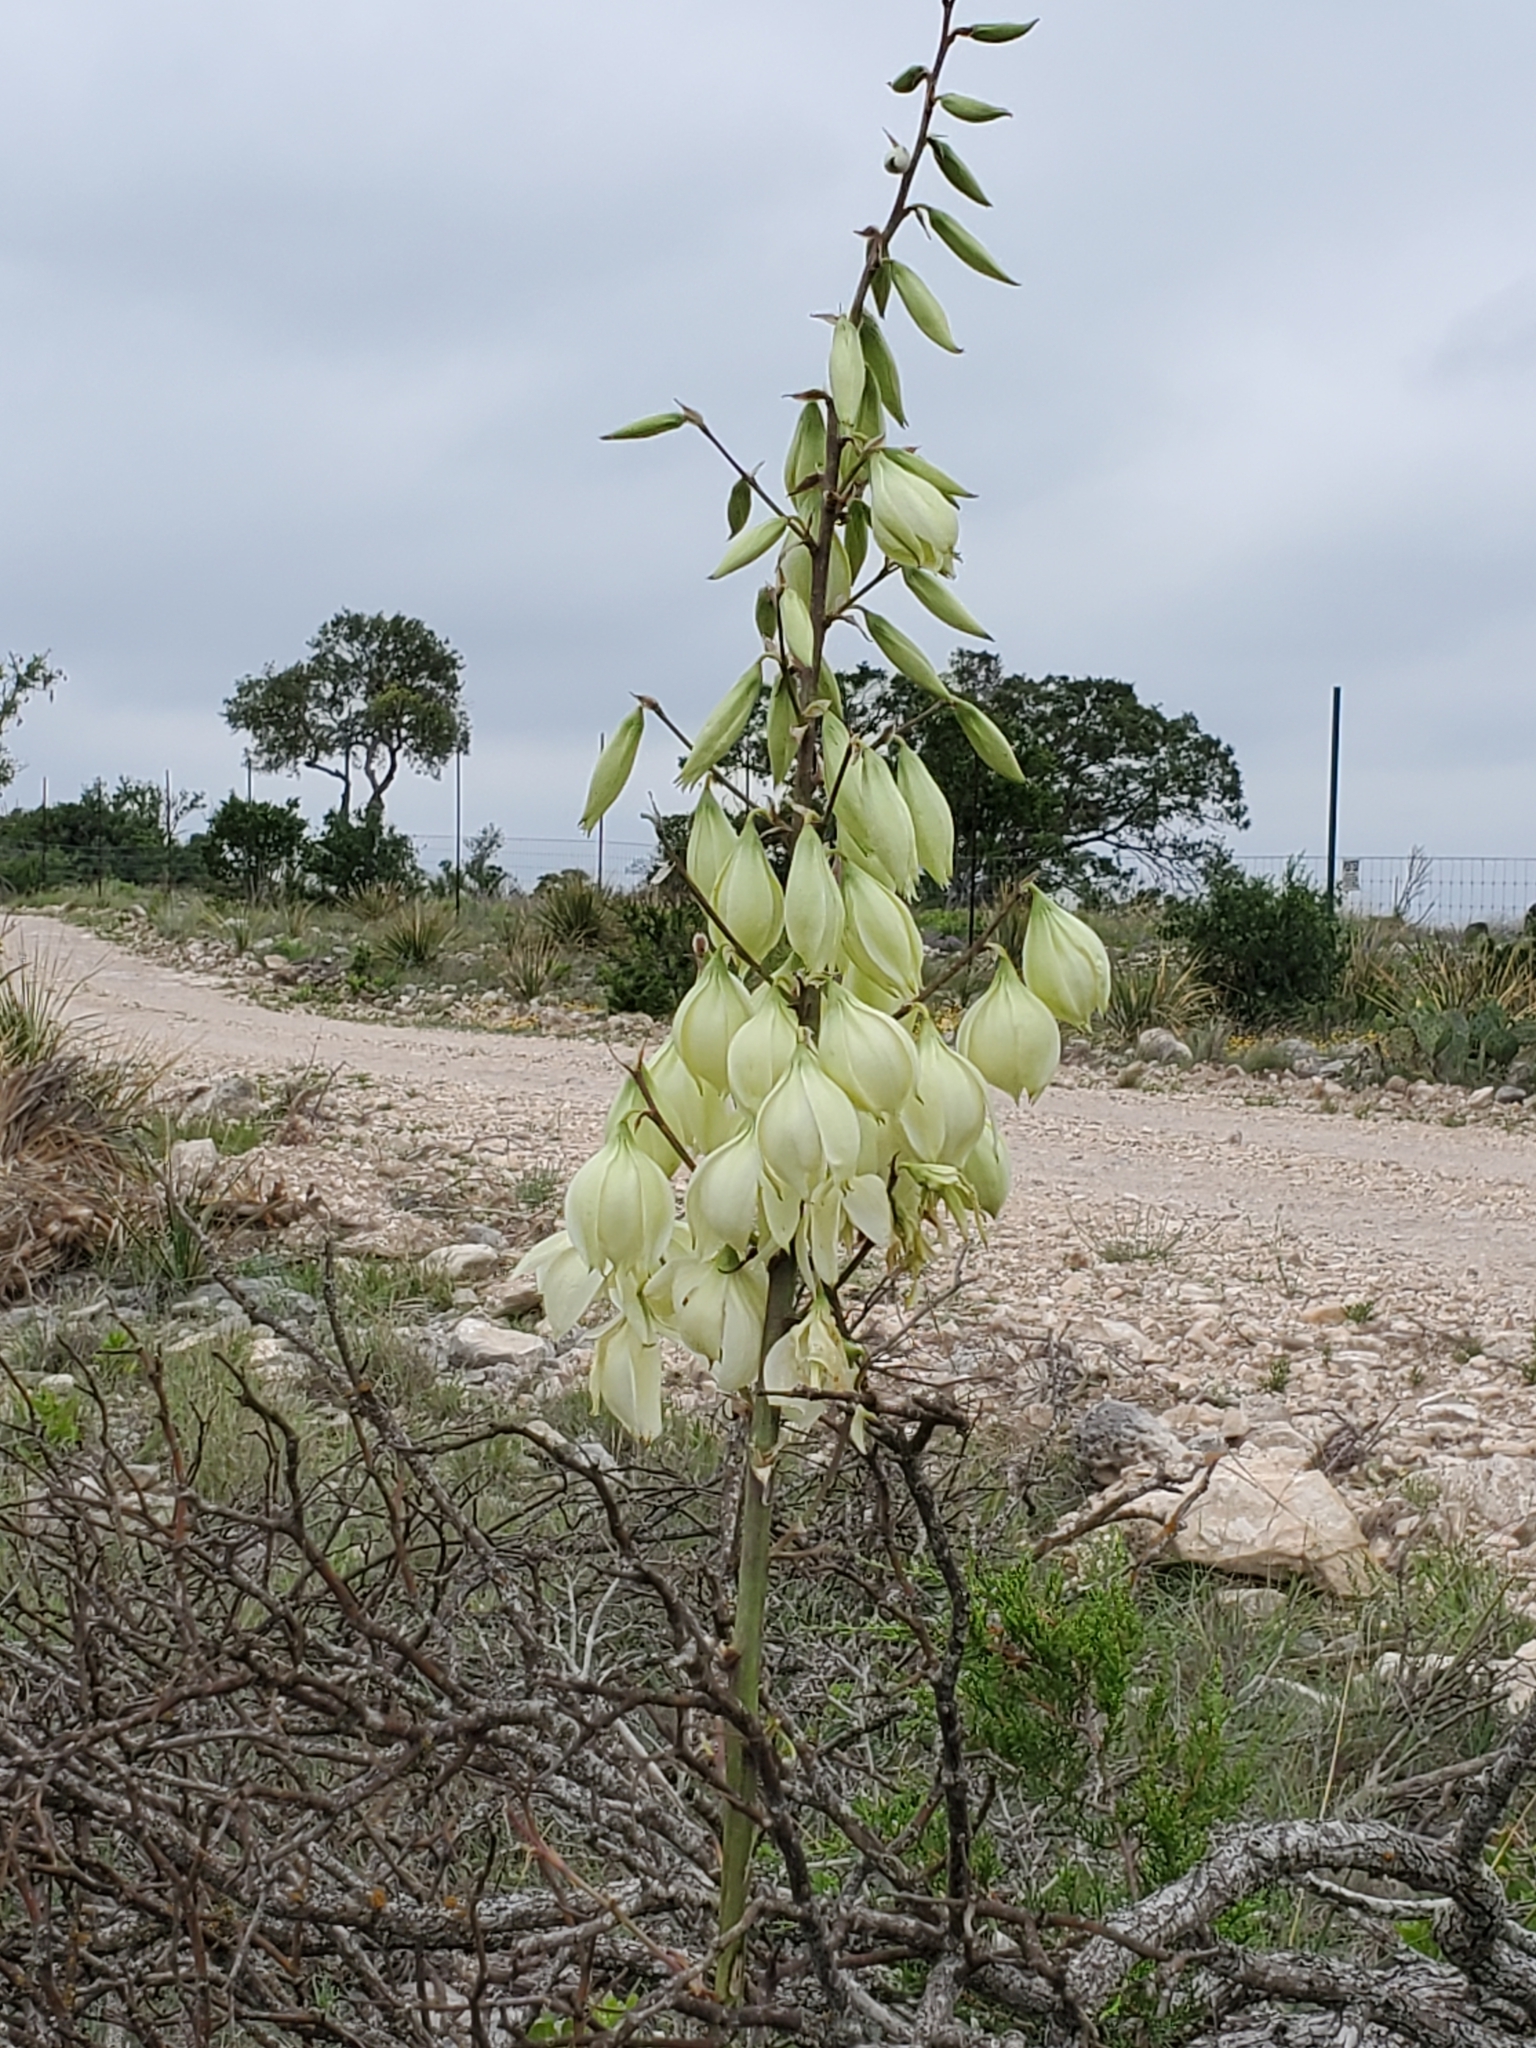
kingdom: Plantae
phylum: Tracheophyta
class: Liliopsida
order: Asparagales
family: Asparagaceae
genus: Yucca
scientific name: Yucca rupicola
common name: Twisted-leaf spanish-dagger
